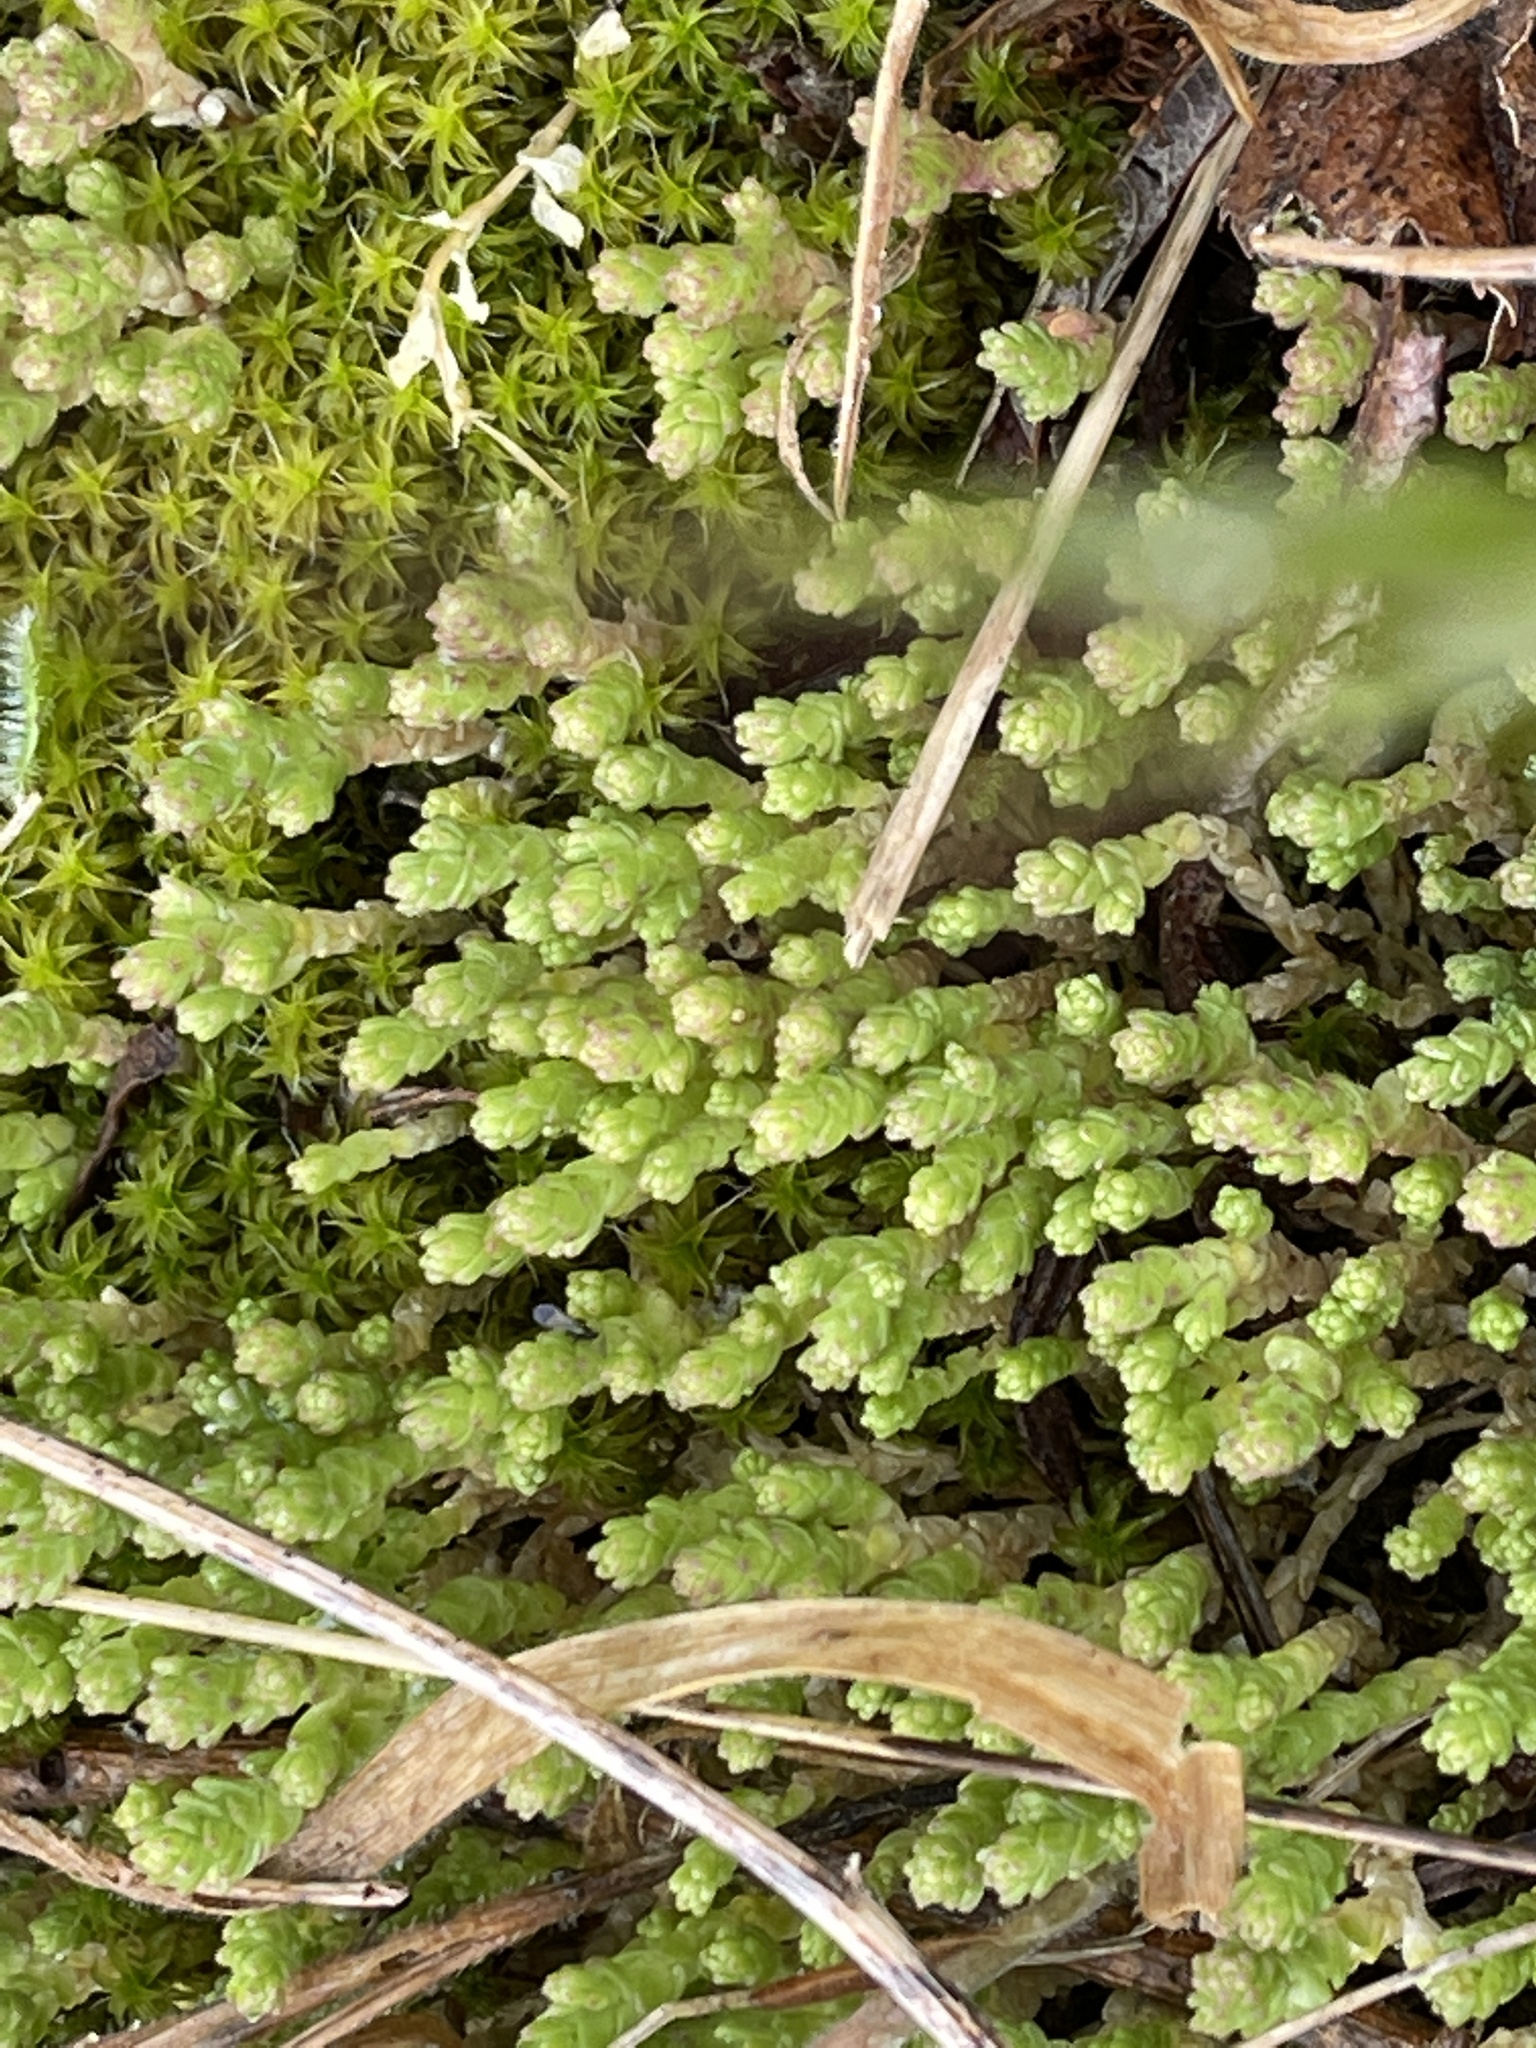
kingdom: Plantae
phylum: Tracheophyta
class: Magnoliopsida
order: Saxifragales
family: Crassulaceae
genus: Sedum
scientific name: Sedum acre
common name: Biting stonecrop
